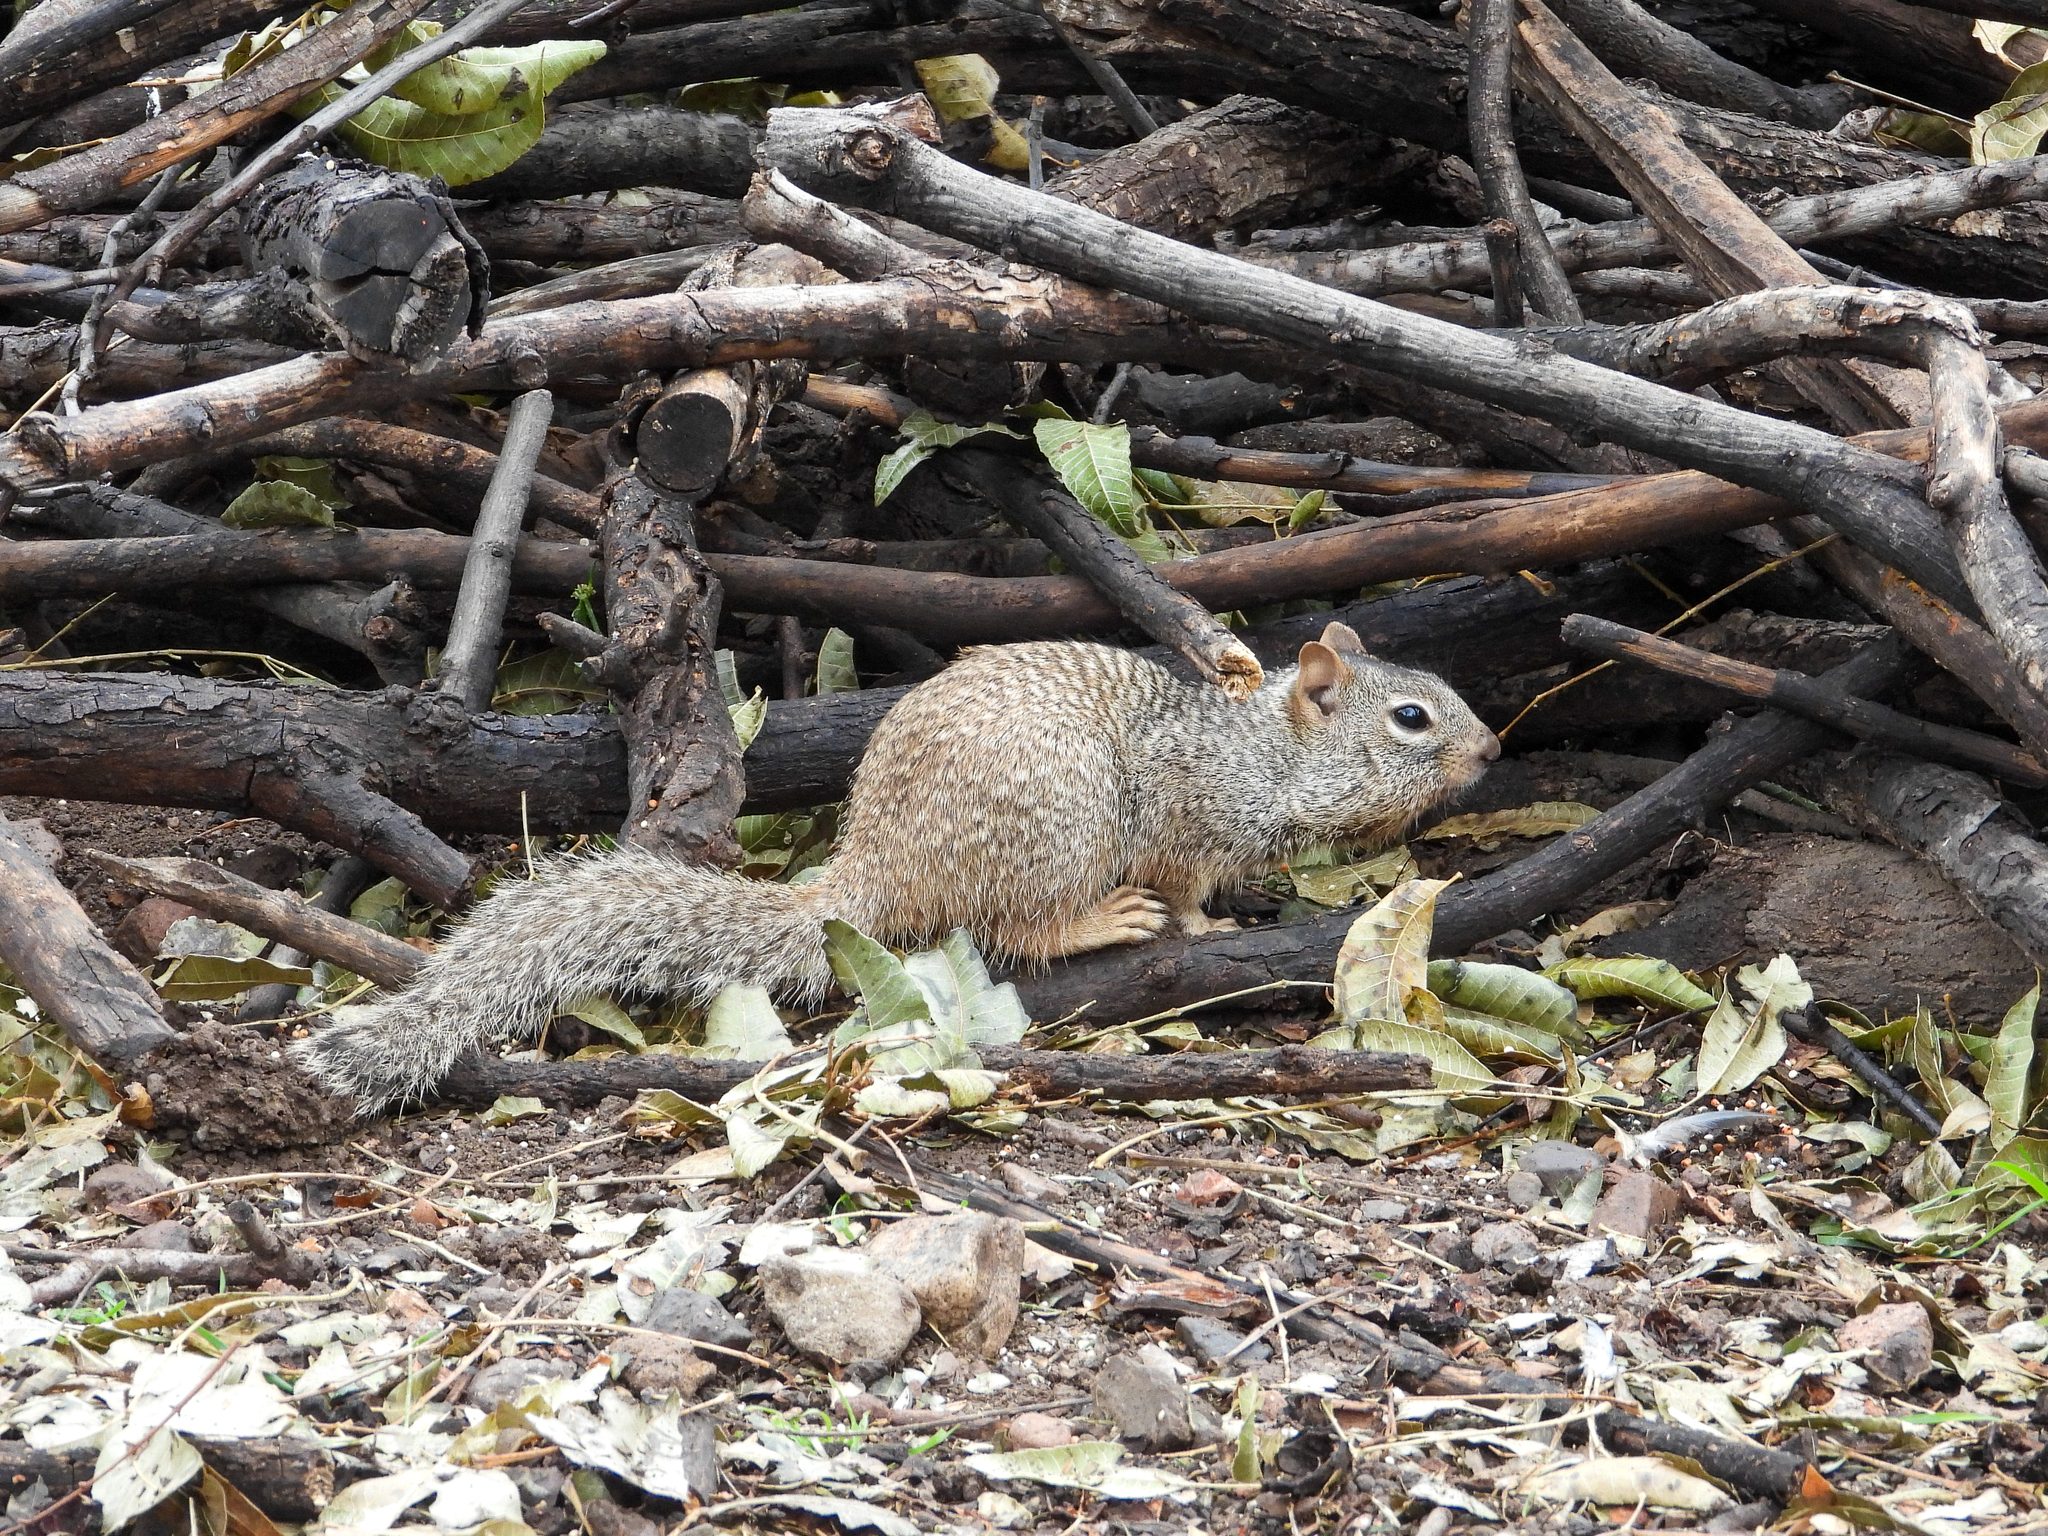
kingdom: Animalia
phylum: Chordata
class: Mammalia
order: Rodentia
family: Sciuridae
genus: Otospermophilus
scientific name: Otospermophilus variegatus
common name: Rock squirrel
